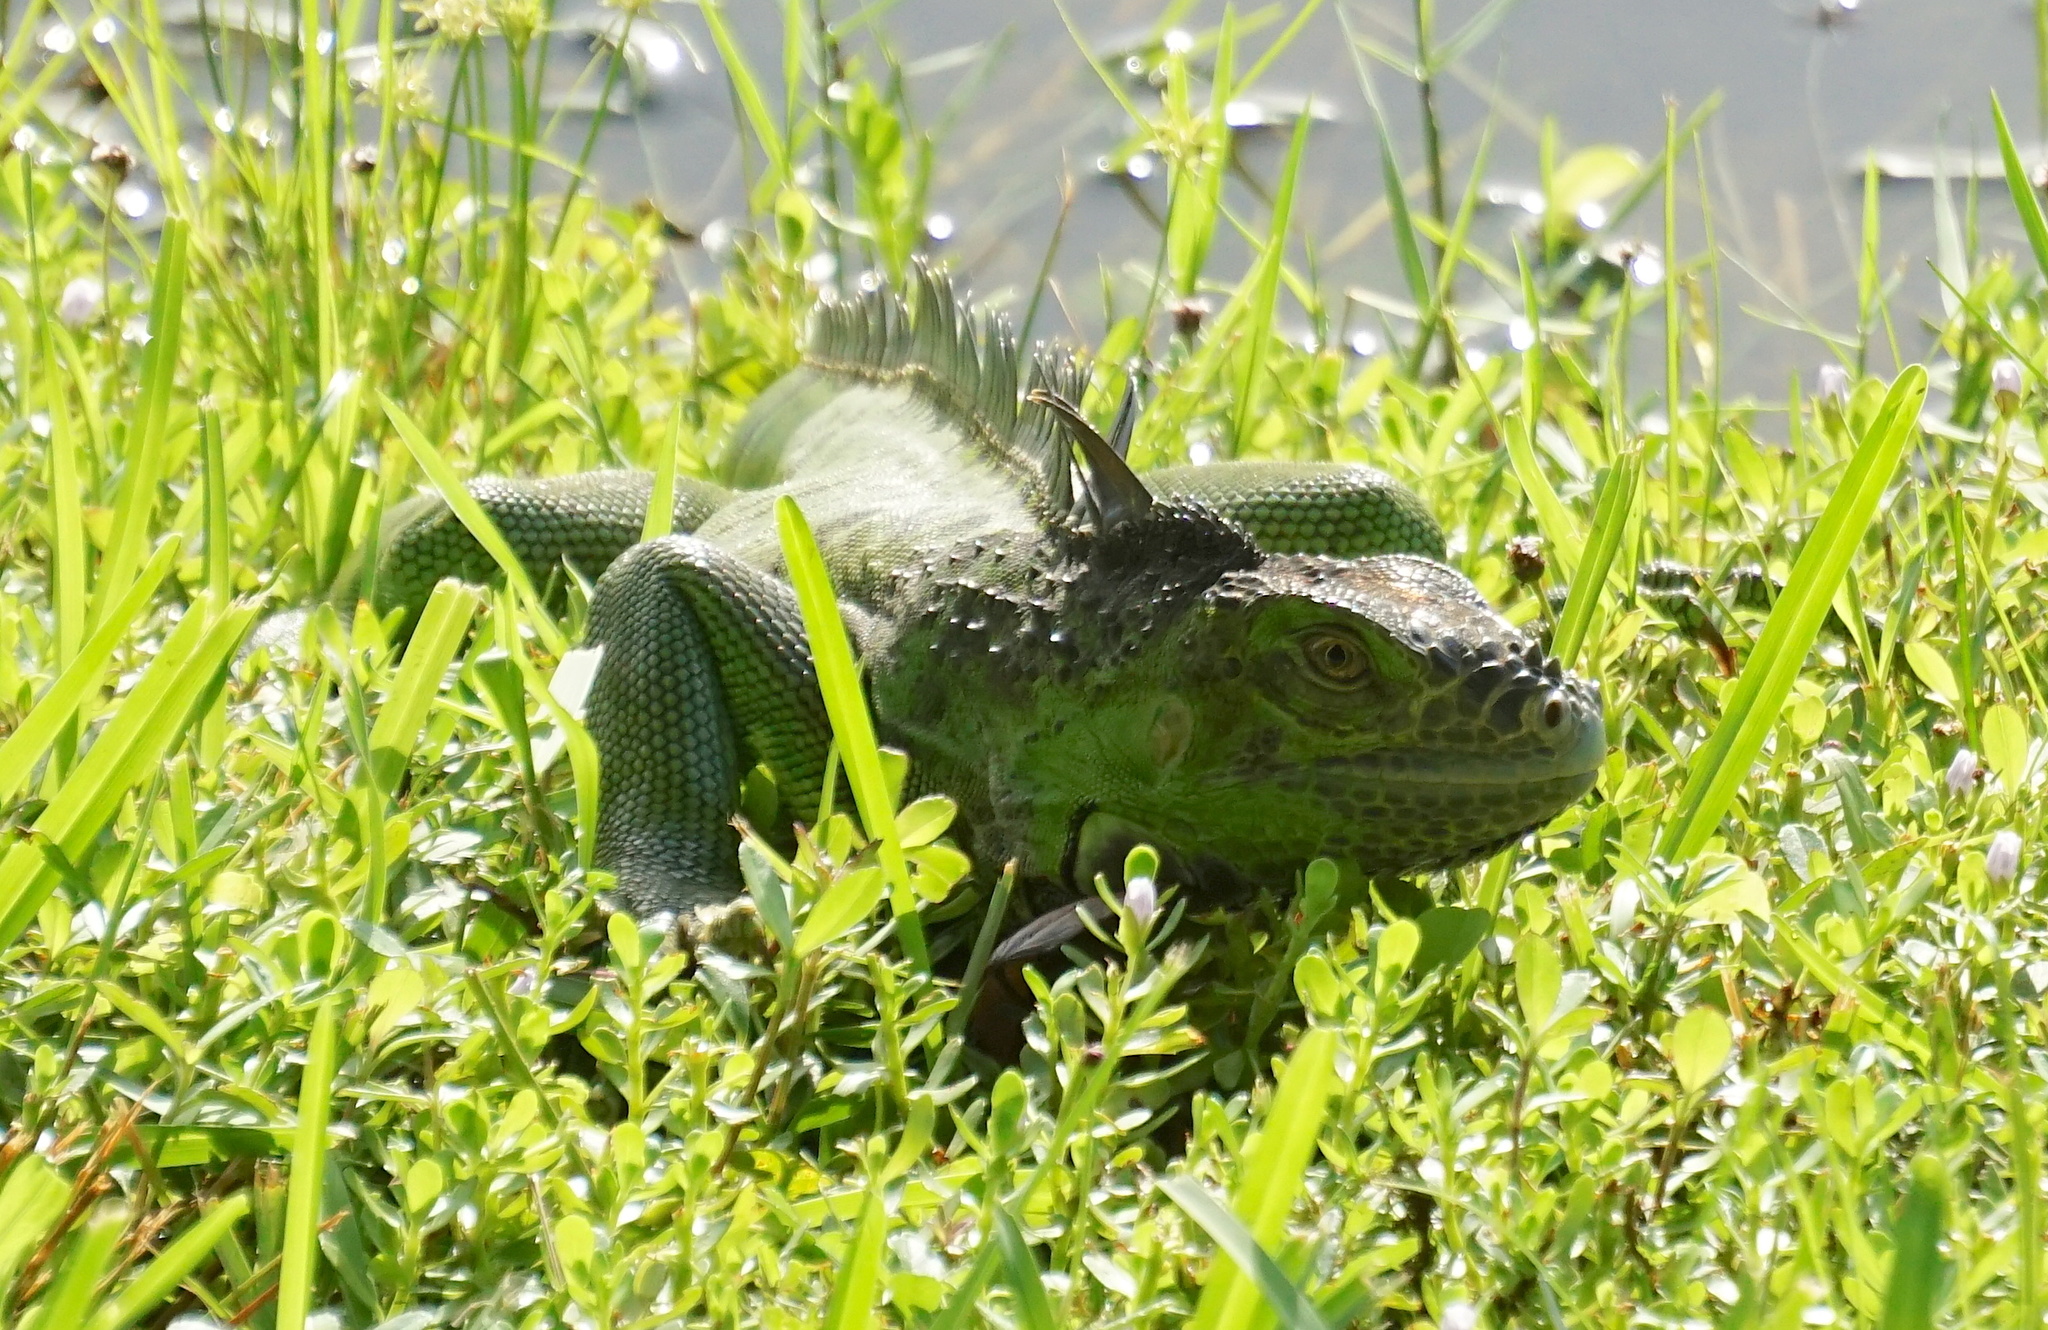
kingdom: Animalia
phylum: Chordata
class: Squamata
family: Iguanidae
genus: Iguana
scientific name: Iguana iguana
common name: Green iguana
